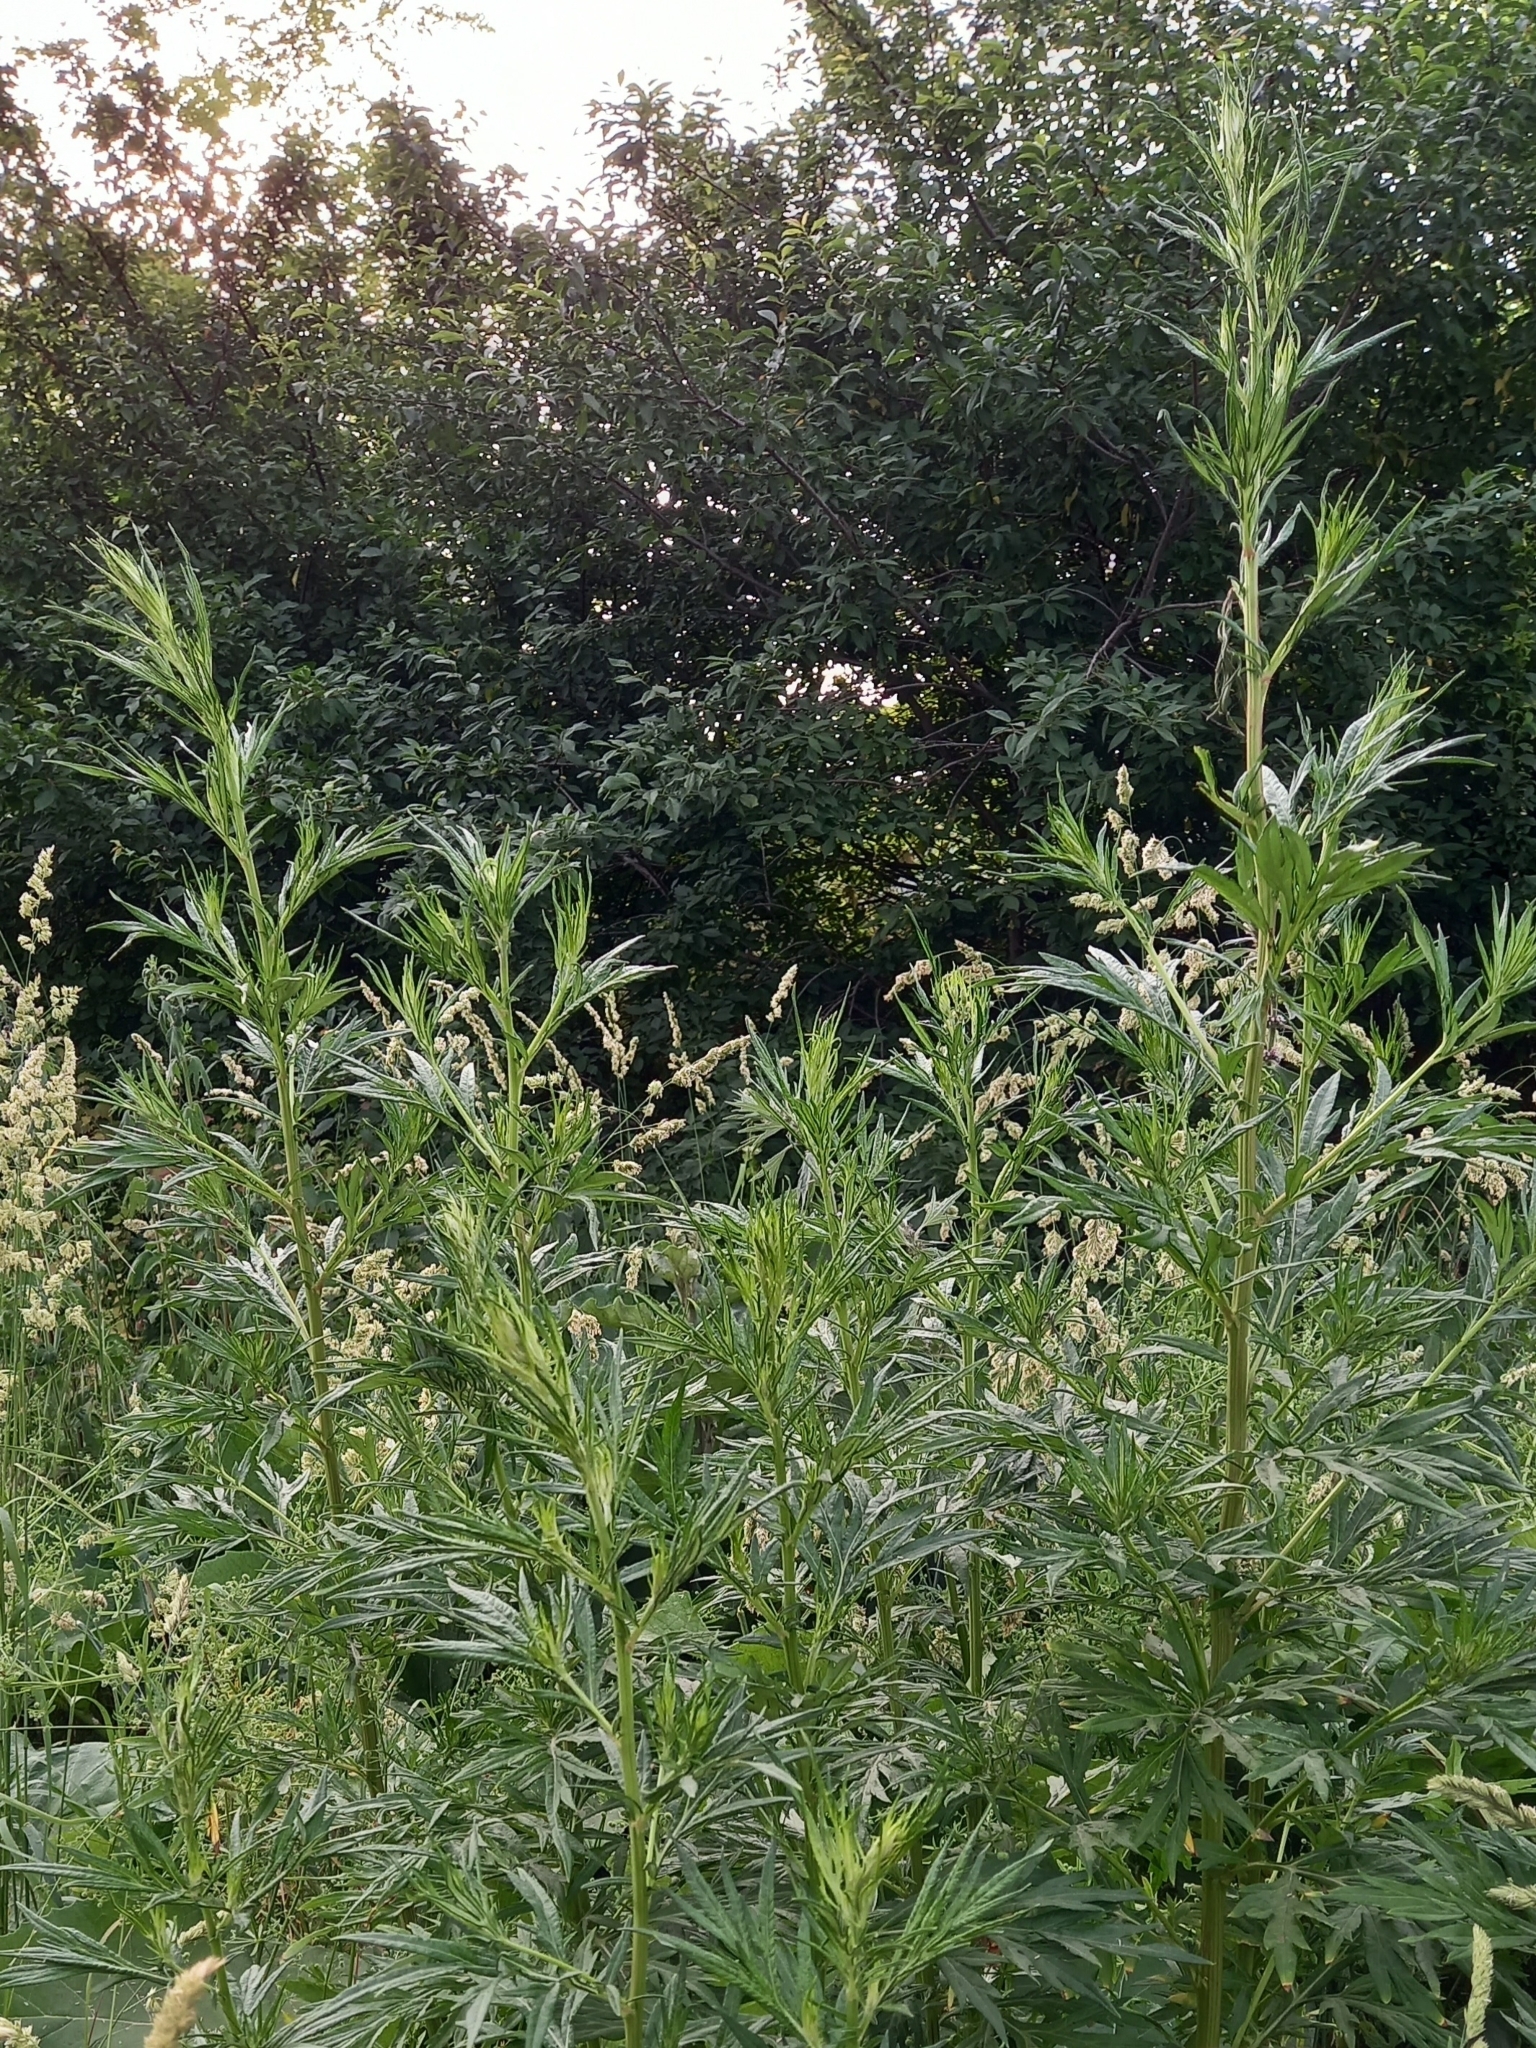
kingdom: Plantae
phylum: Tracheophyta
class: Magnoliopsida
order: Asterales
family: Asteraceae
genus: Artemisia
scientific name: Artemisia vulgaris
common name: Mugwort
